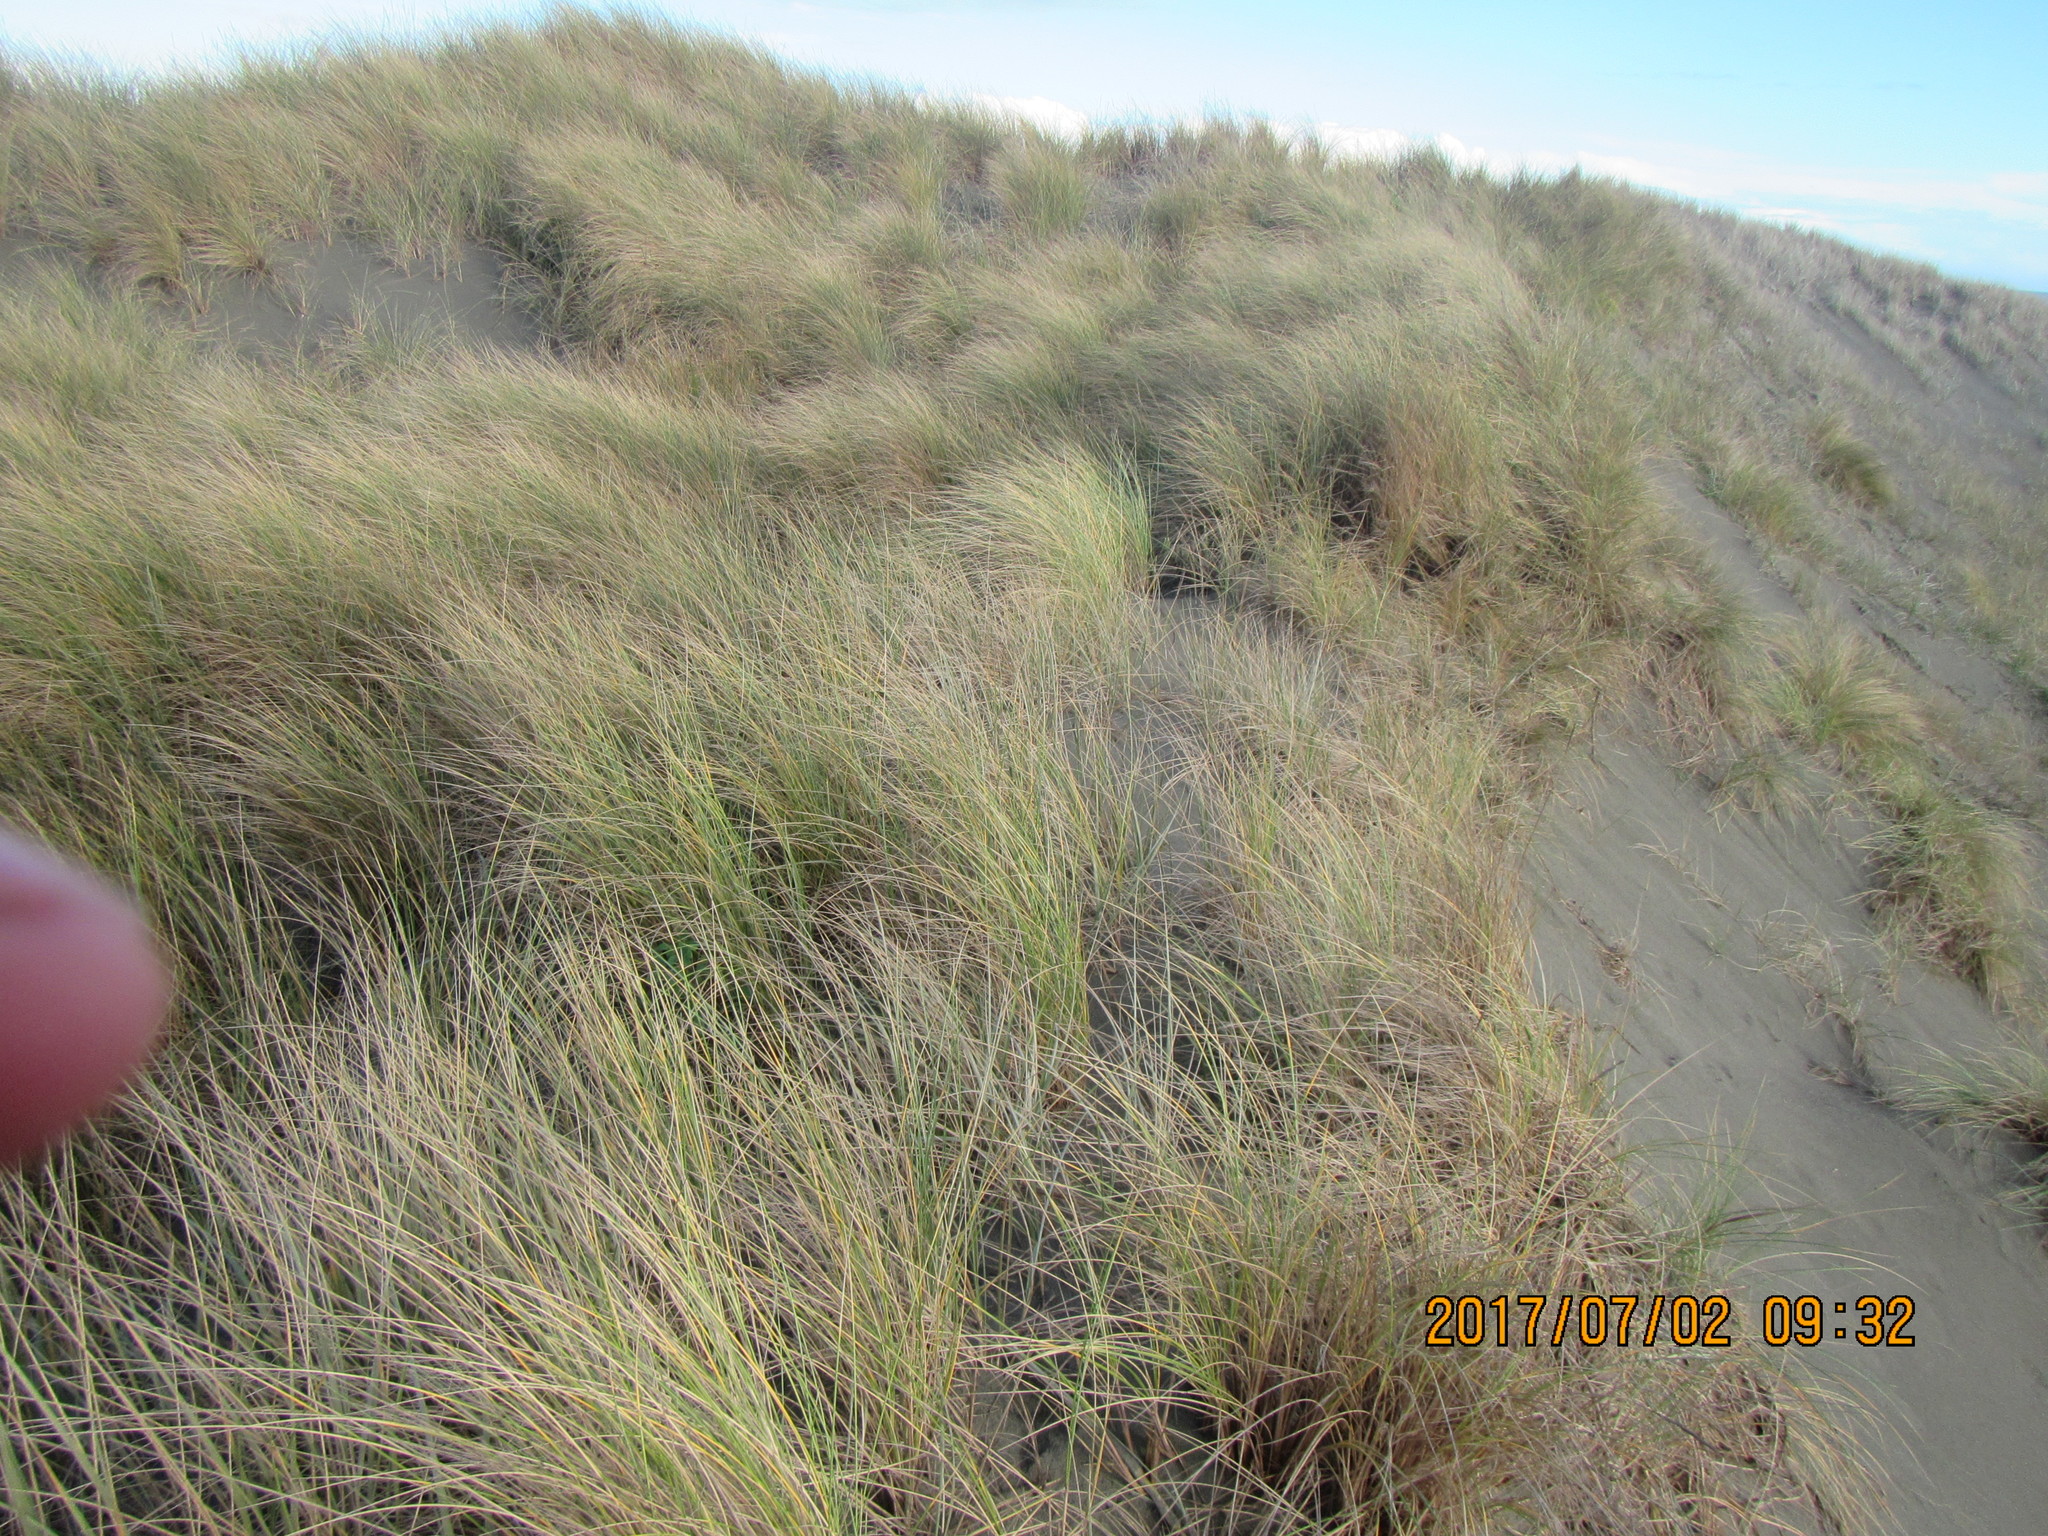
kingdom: Plantae
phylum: Tracheophyta
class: Liliopsida
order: Poales
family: Poaceae
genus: Calamagrostis
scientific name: Calamagrostis arenaria
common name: European beachgrass
